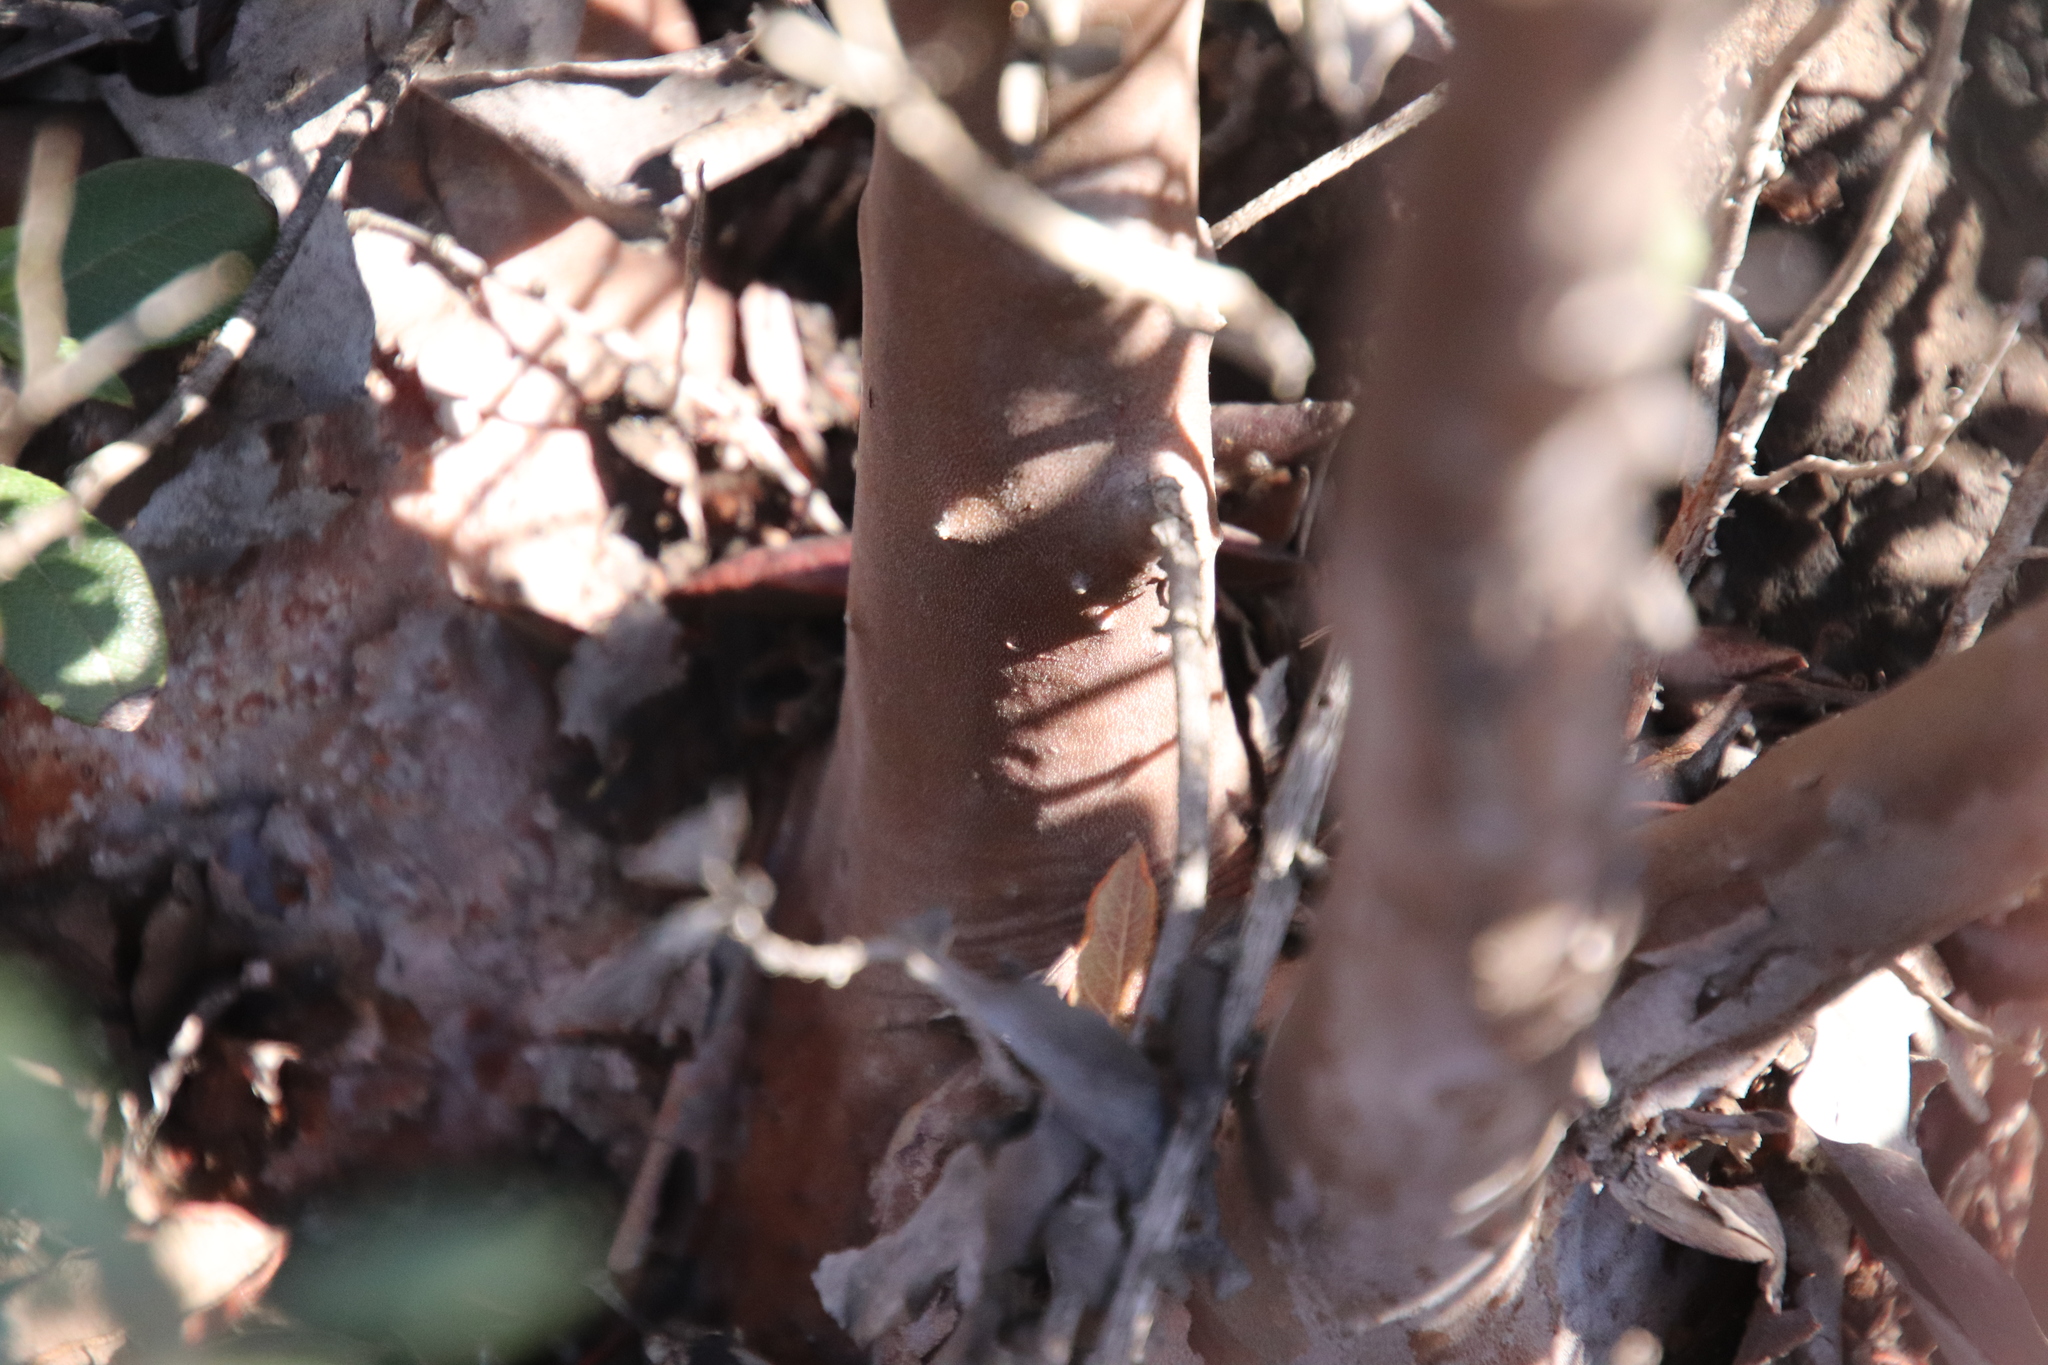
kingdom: Plantae
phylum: Tracheophyta
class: Magnoliopsida
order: Ericales
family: Ericaceae
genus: Arctostaphylos
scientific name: Arctostaphylos bicolor
